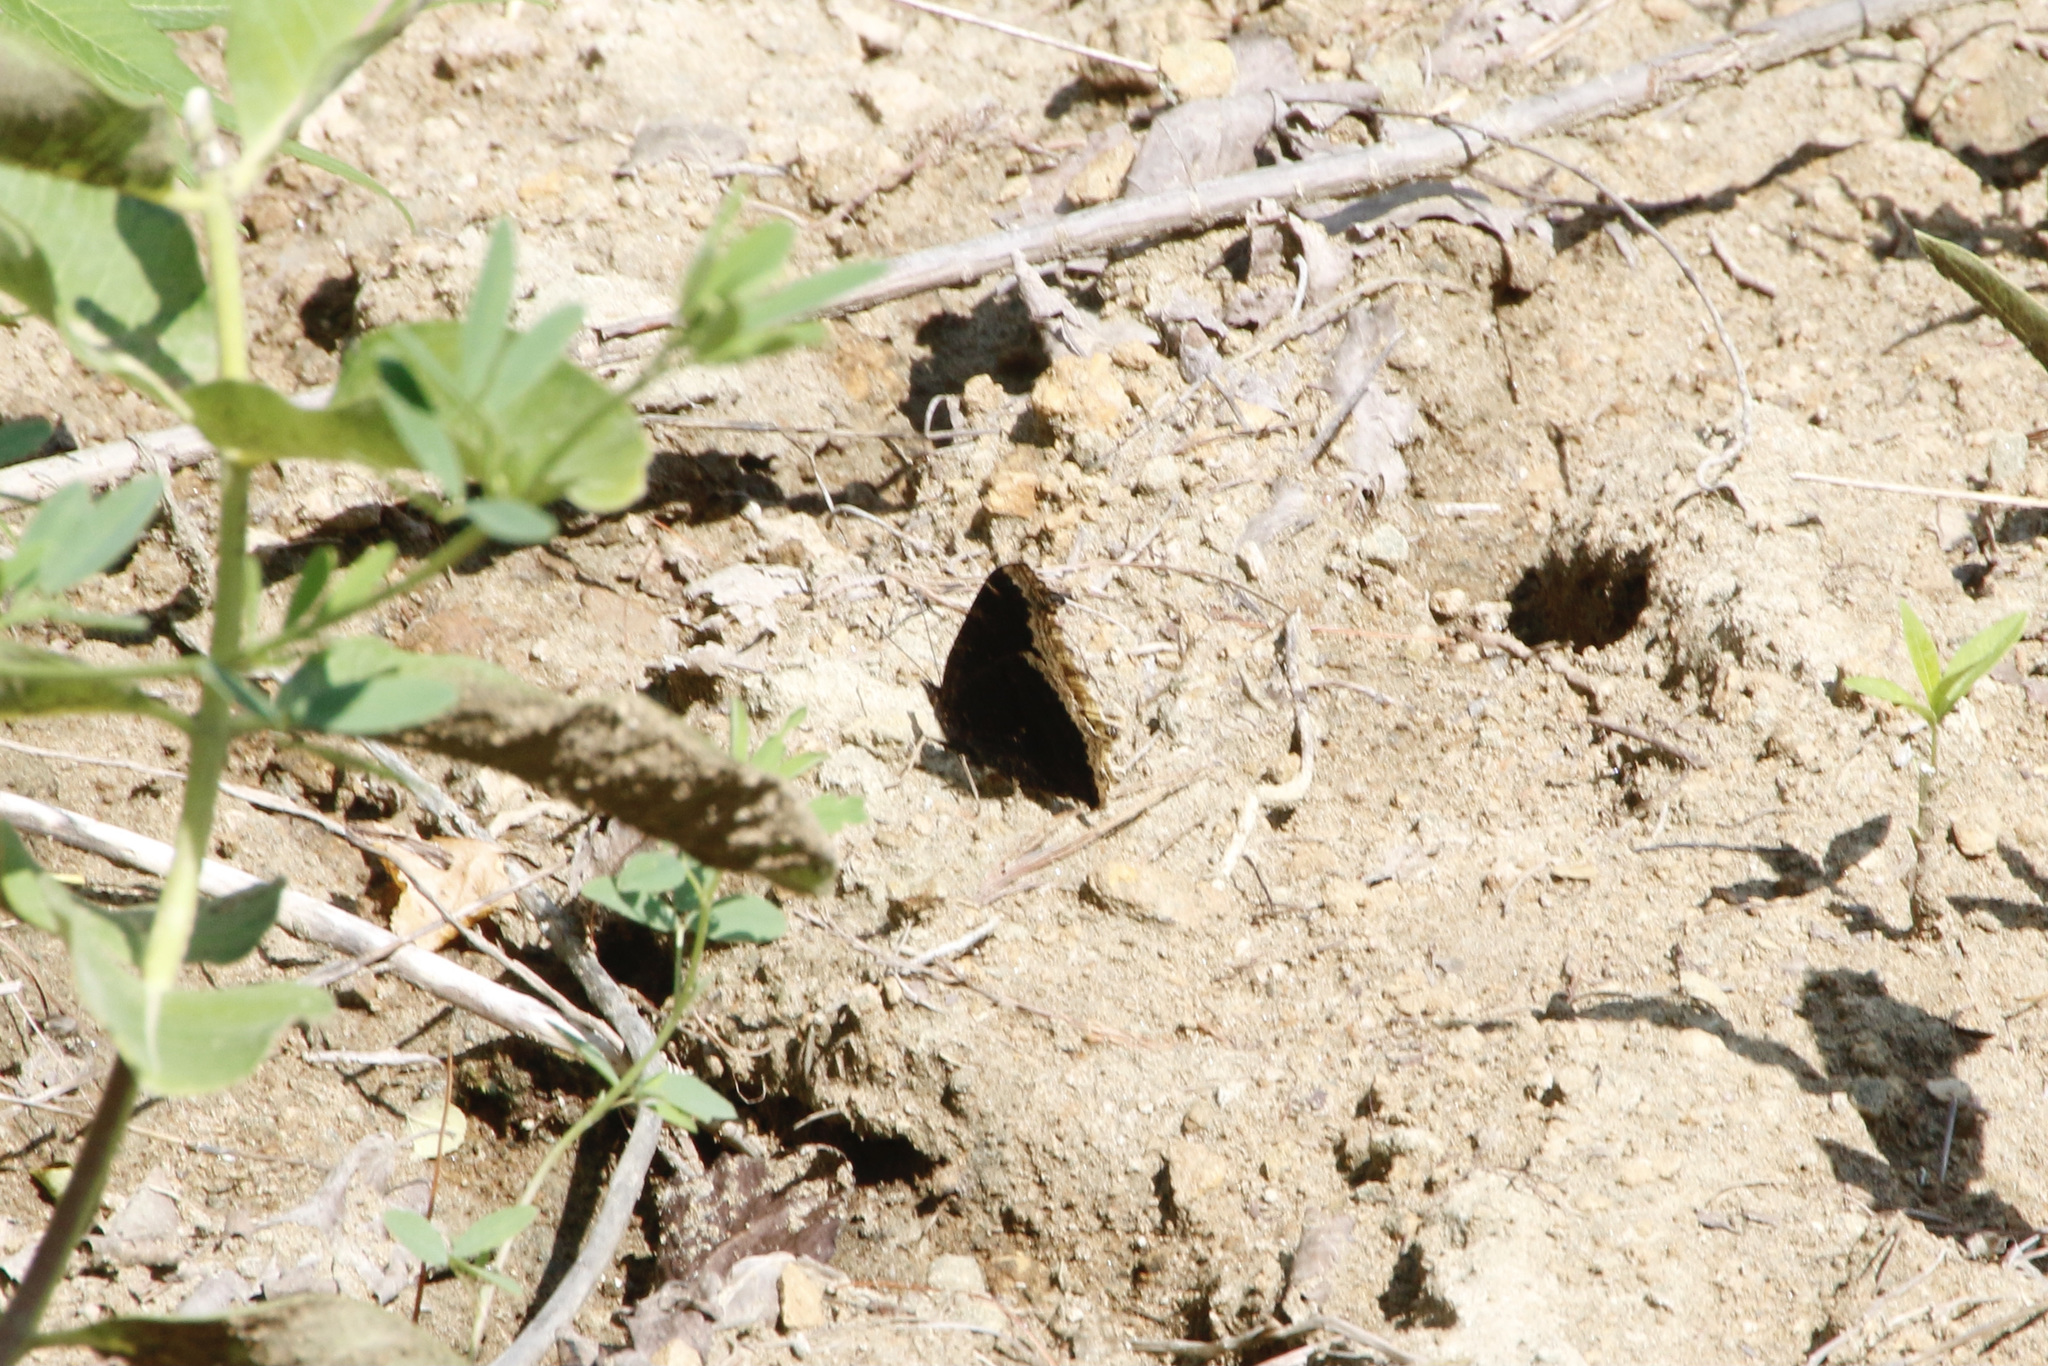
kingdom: Animalia
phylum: Arthropoda
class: Insecta
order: Lepidoptera
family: Nymphalidae
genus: Nymphalis
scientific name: Nymphalis antiopa
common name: Camberwell beauty
